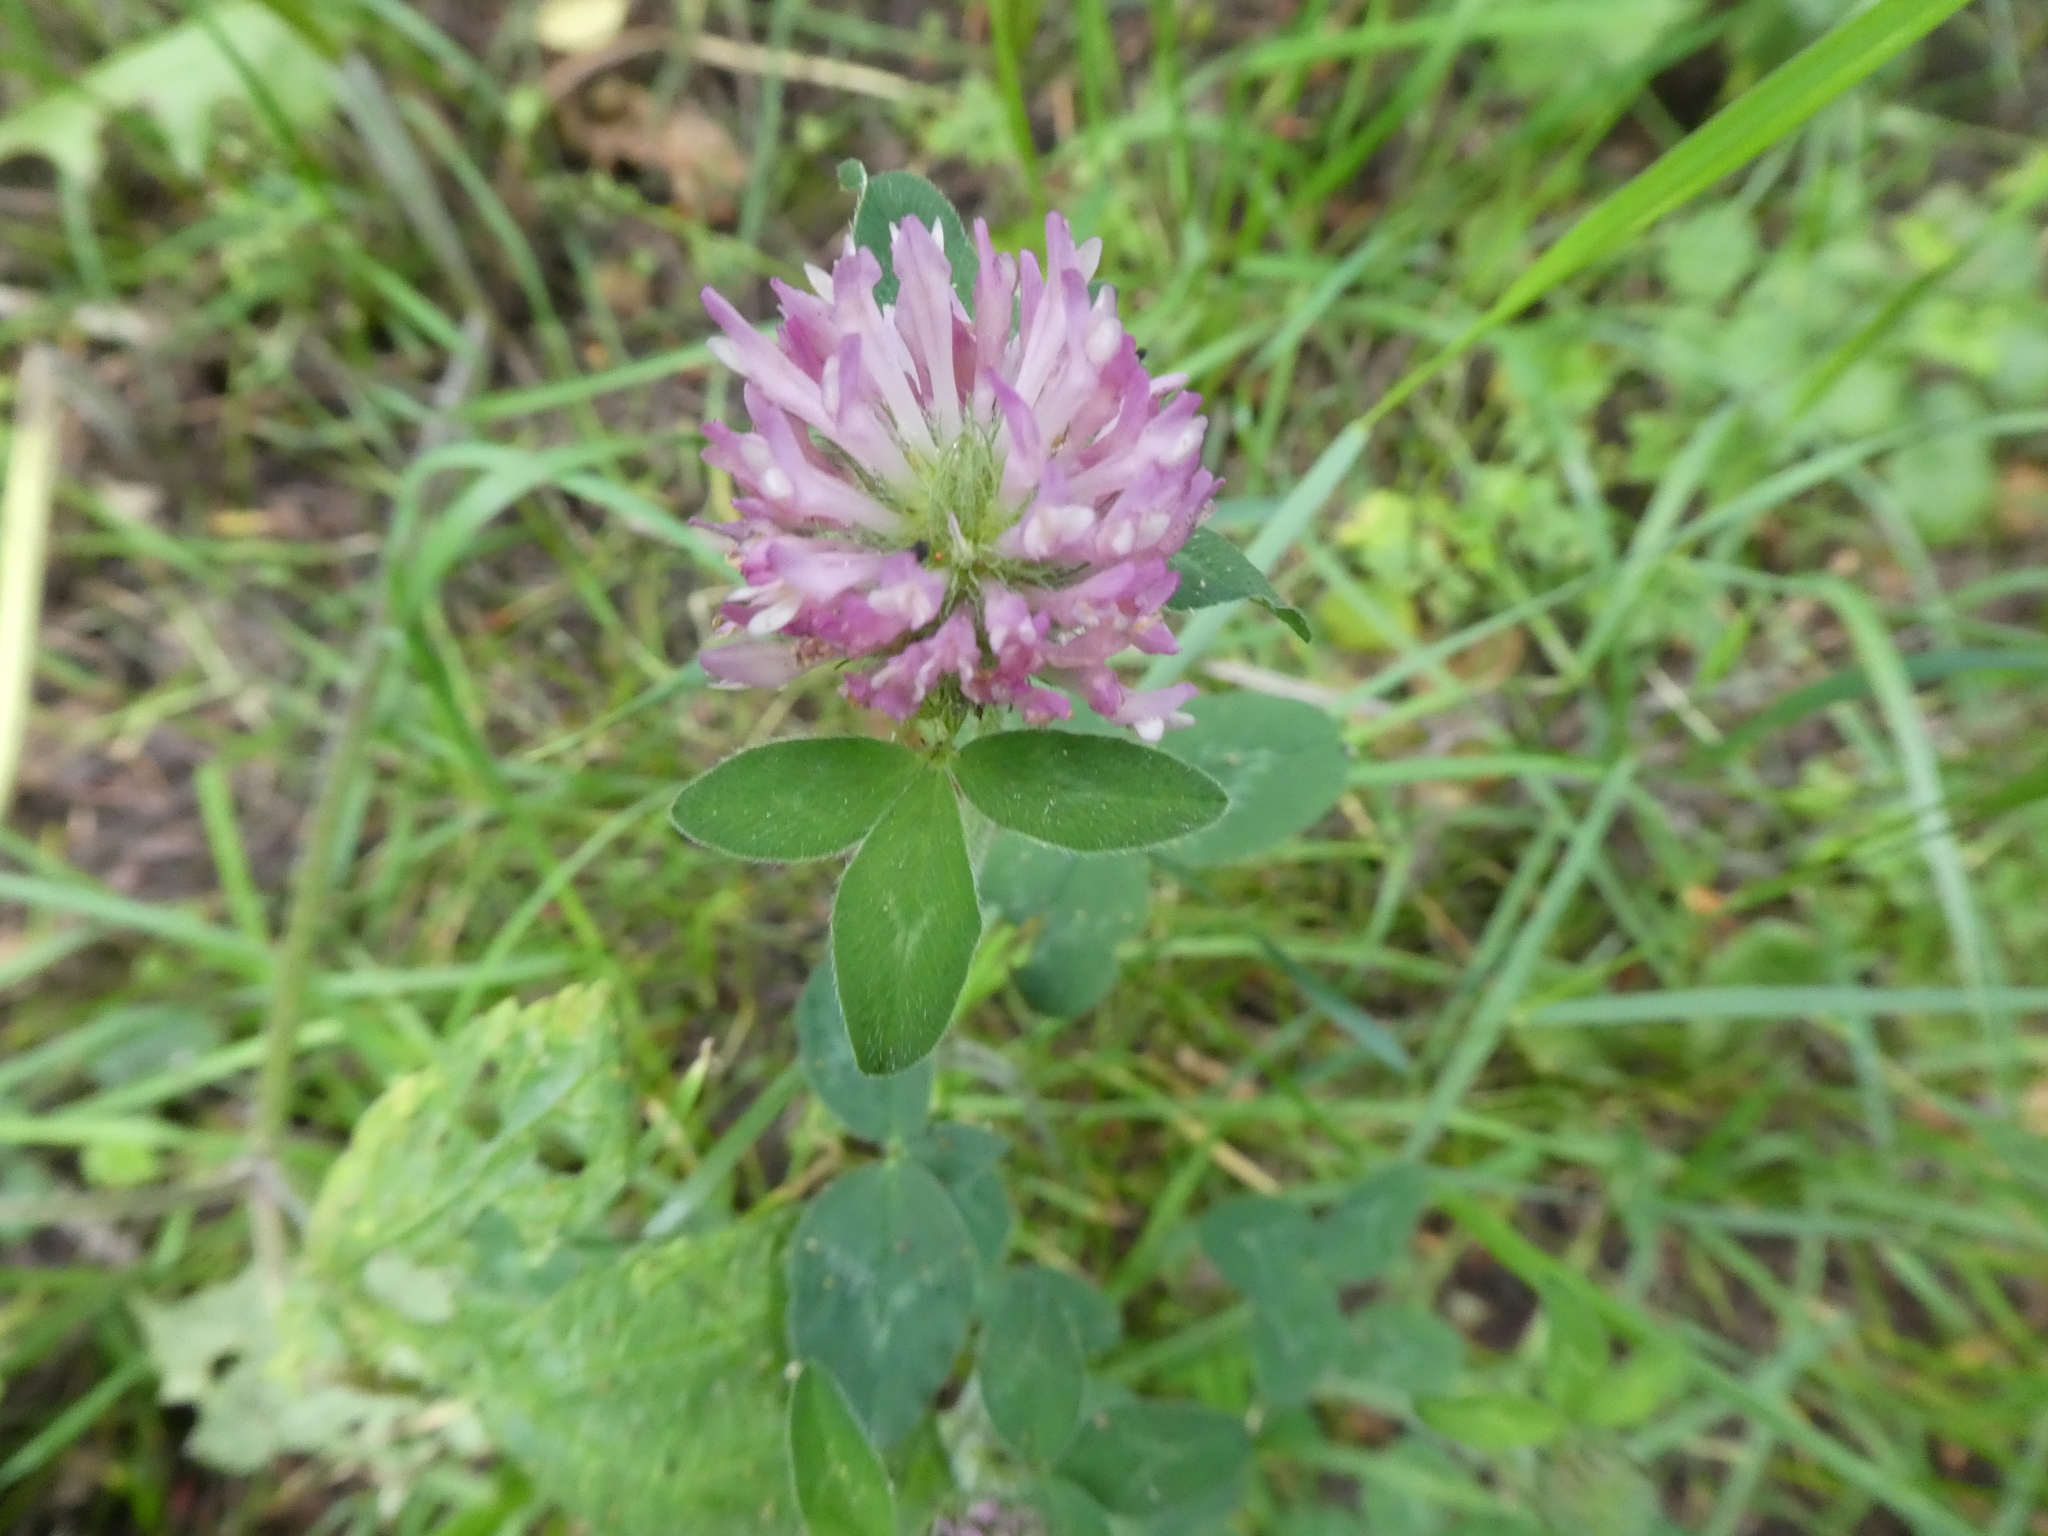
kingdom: Plantae
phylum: Tracheophyta
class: Magnoliopsida
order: Fabales
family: Fabaceae
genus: Trifolium
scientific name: Trifolium pratense
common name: Red clover
